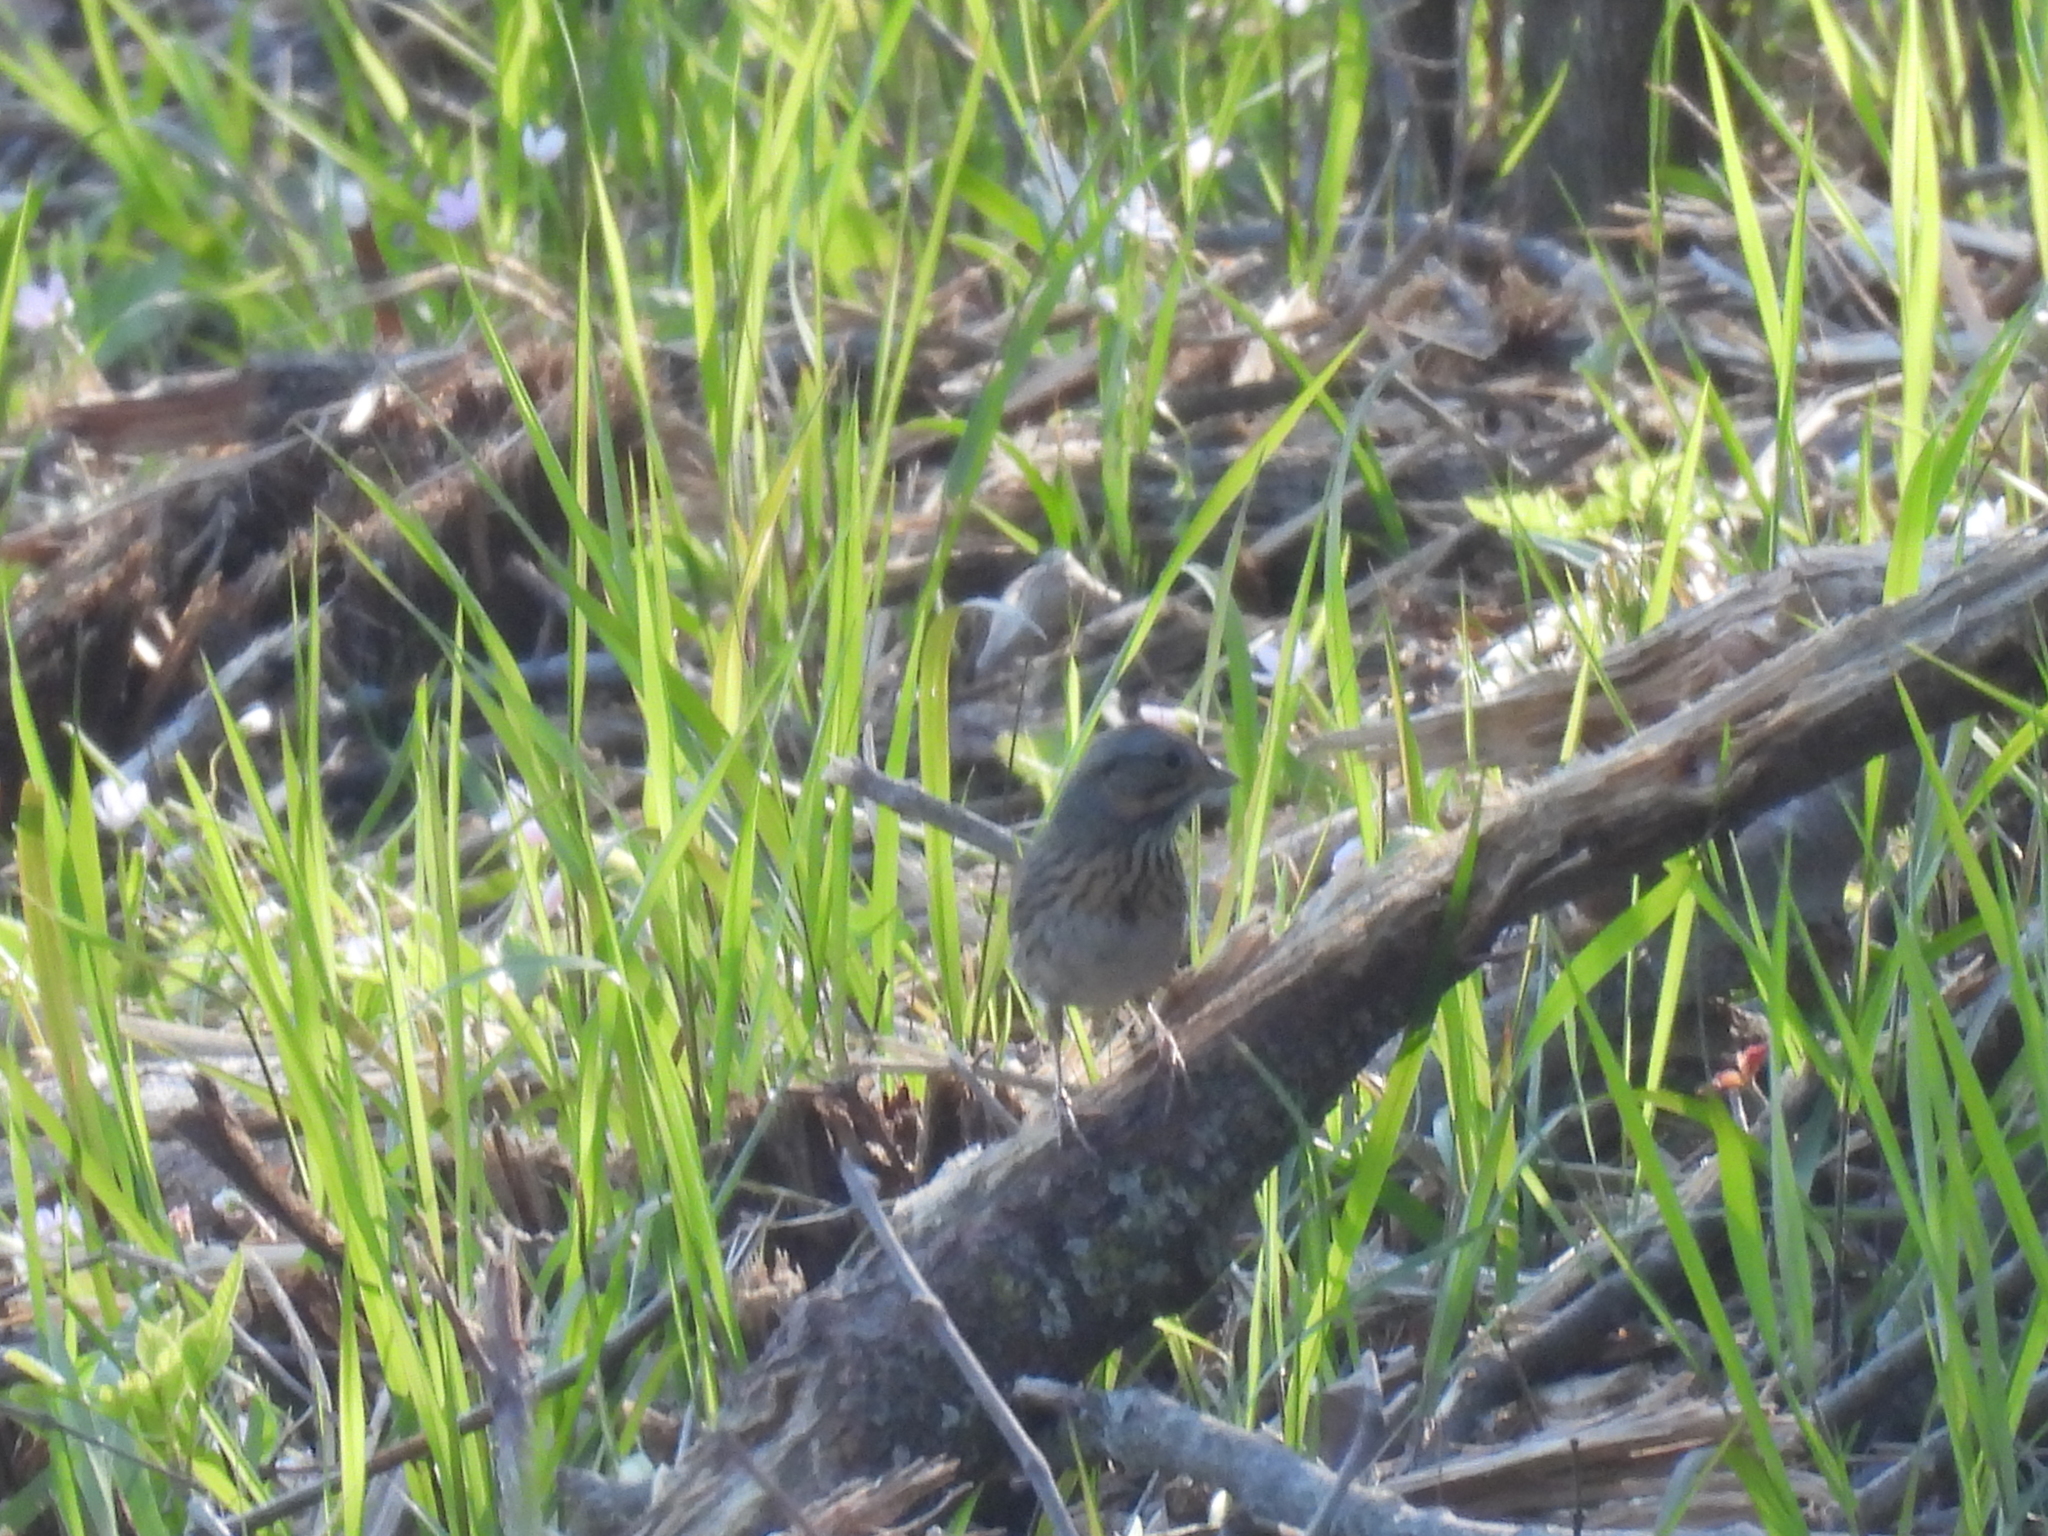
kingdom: Animalia
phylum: Chordata
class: Aves
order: Passeriformes
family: Passerellidae
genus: Melospiza
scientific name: Melospiza lincolnii
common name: Lincoln's sparrow
